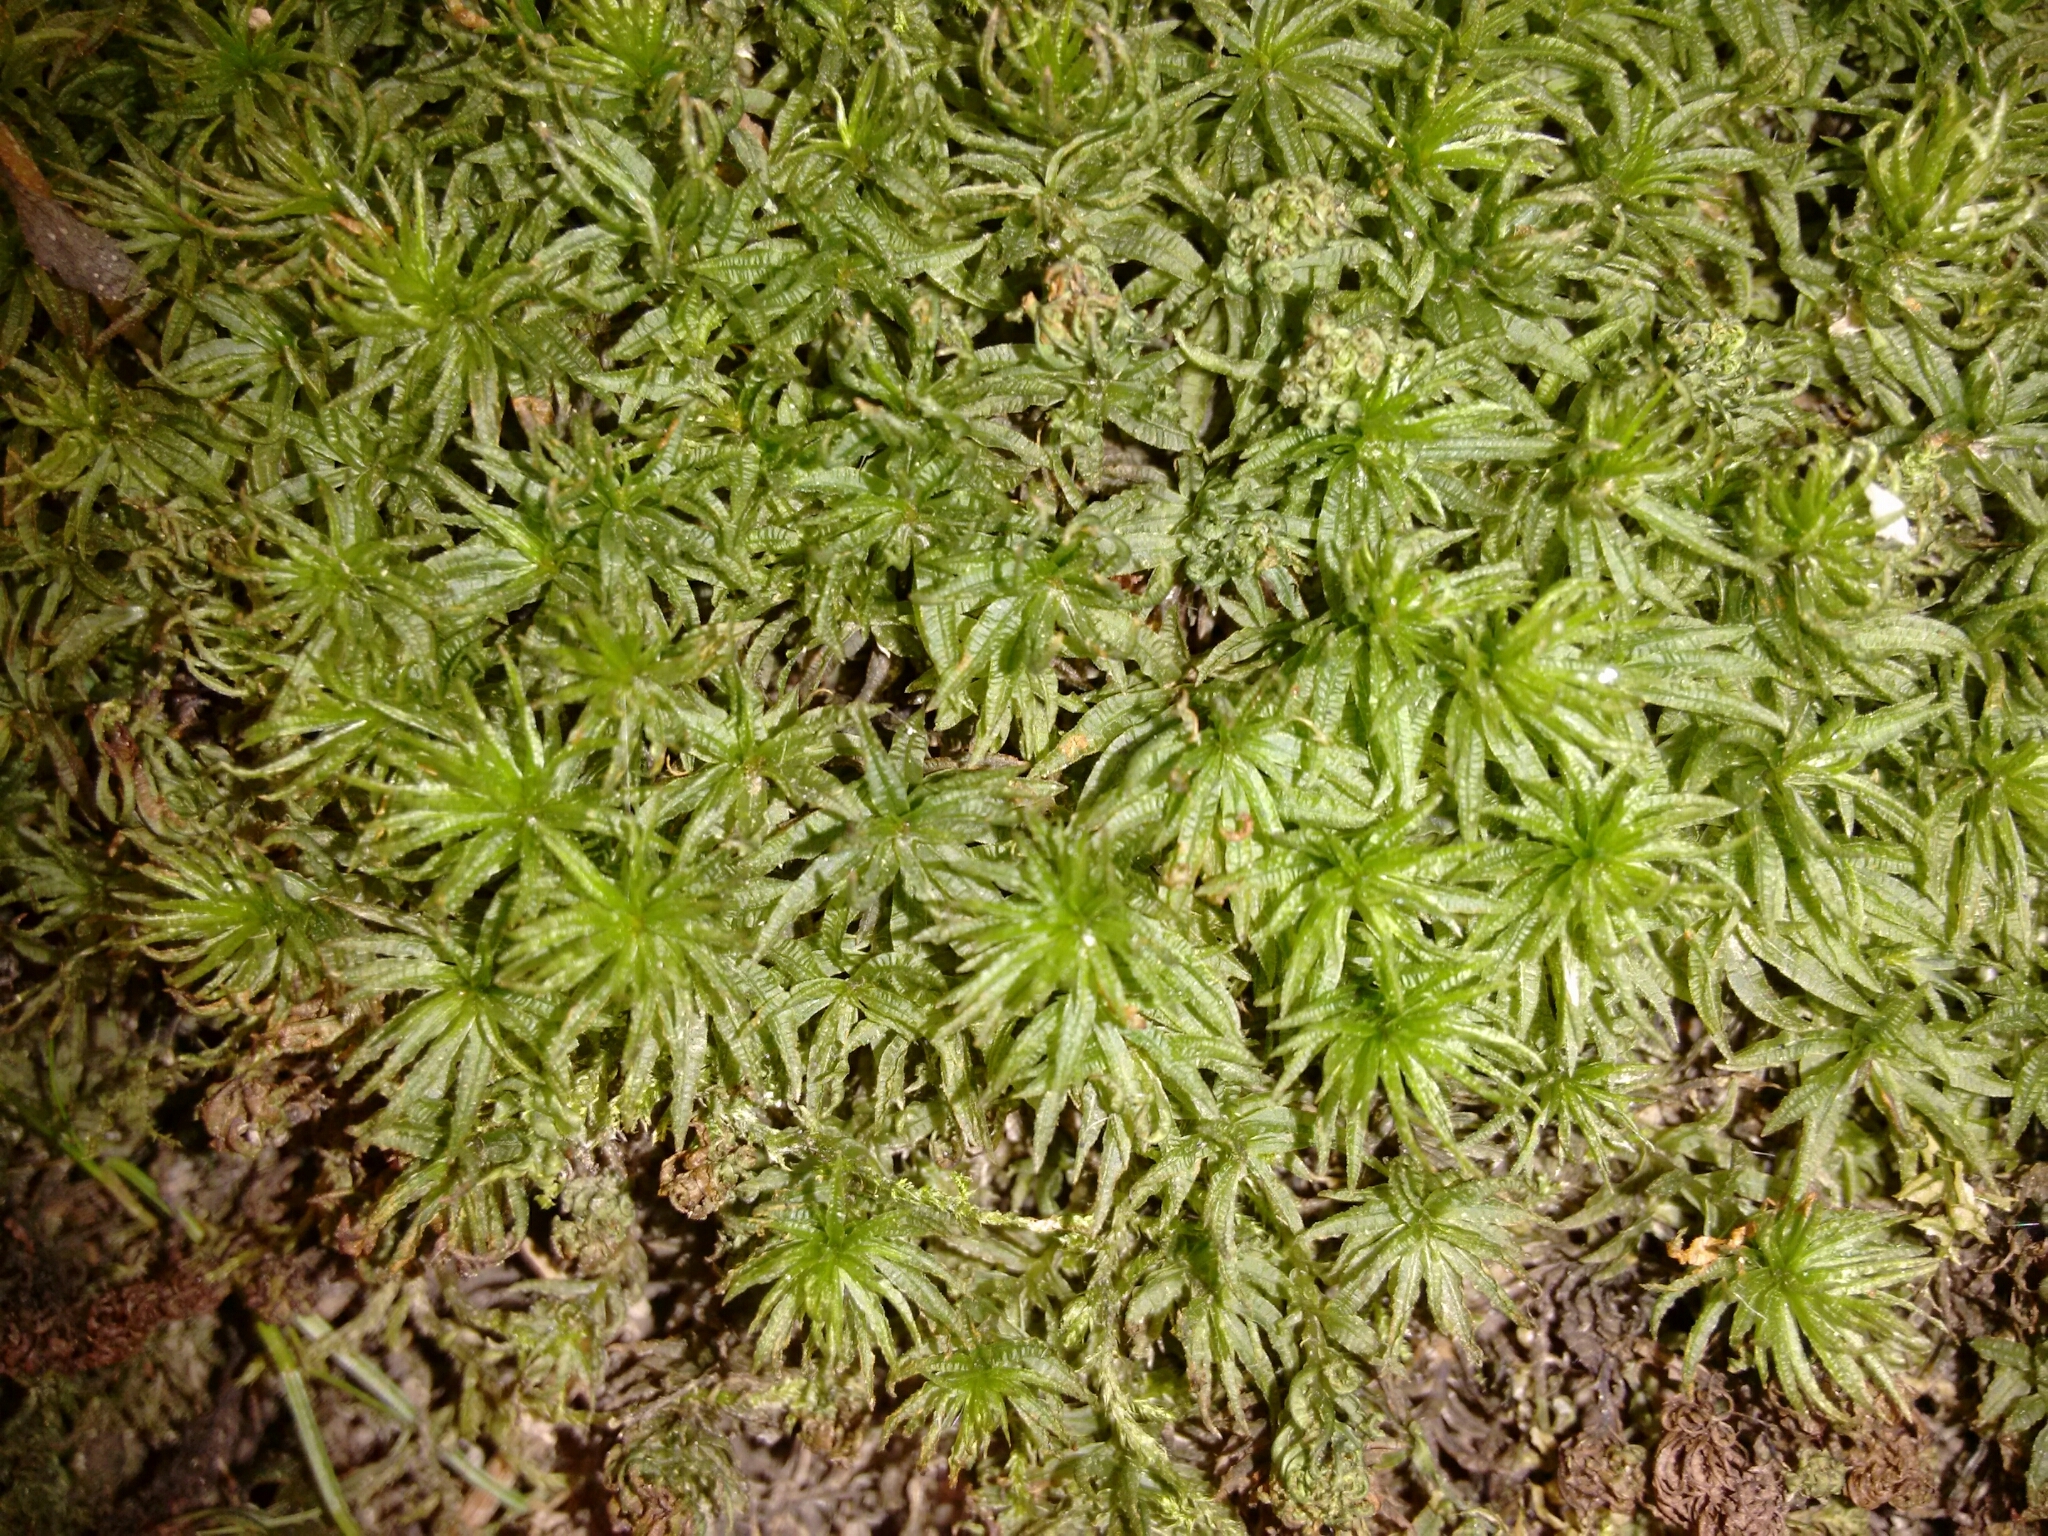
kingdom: Plantae
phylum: Bryophyta
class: Polytrichopsida
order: Polytrichales
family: Polytrichaceae
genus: Atrichum
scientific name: Atrichum undulatum
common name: Common smoothcap
